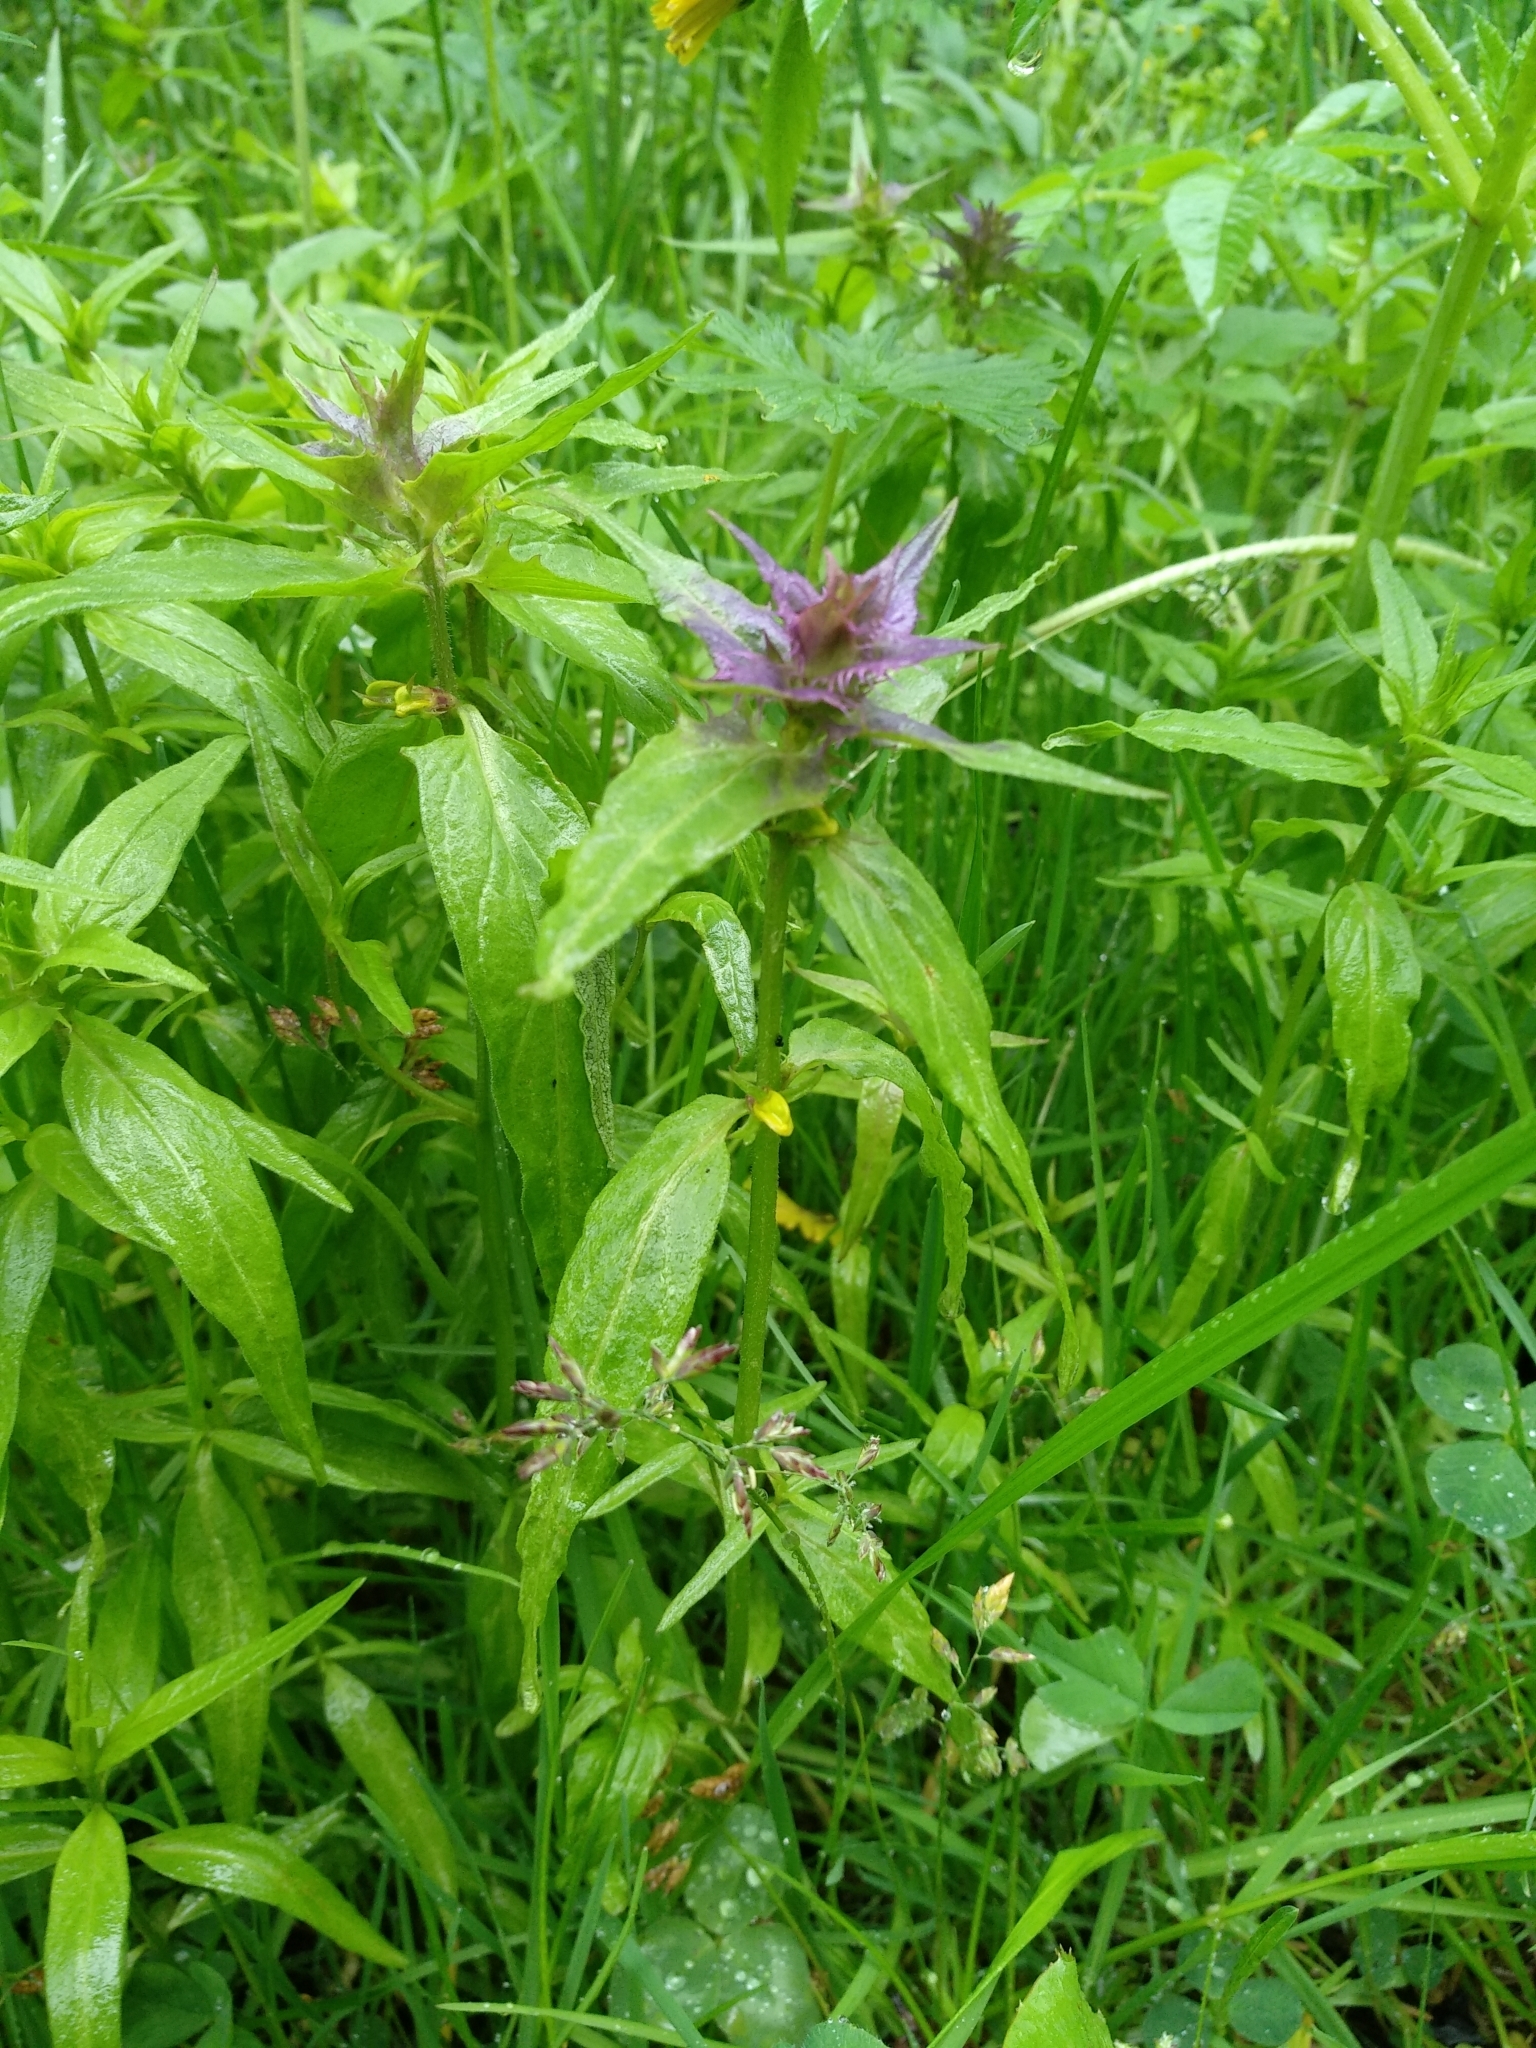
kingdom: Plantae
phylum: Tracheophyta
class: Magnoliopsida
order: Lamiales
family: Orobanchaceae
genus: Melampyrum
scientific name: Melampyrum nemorosum
